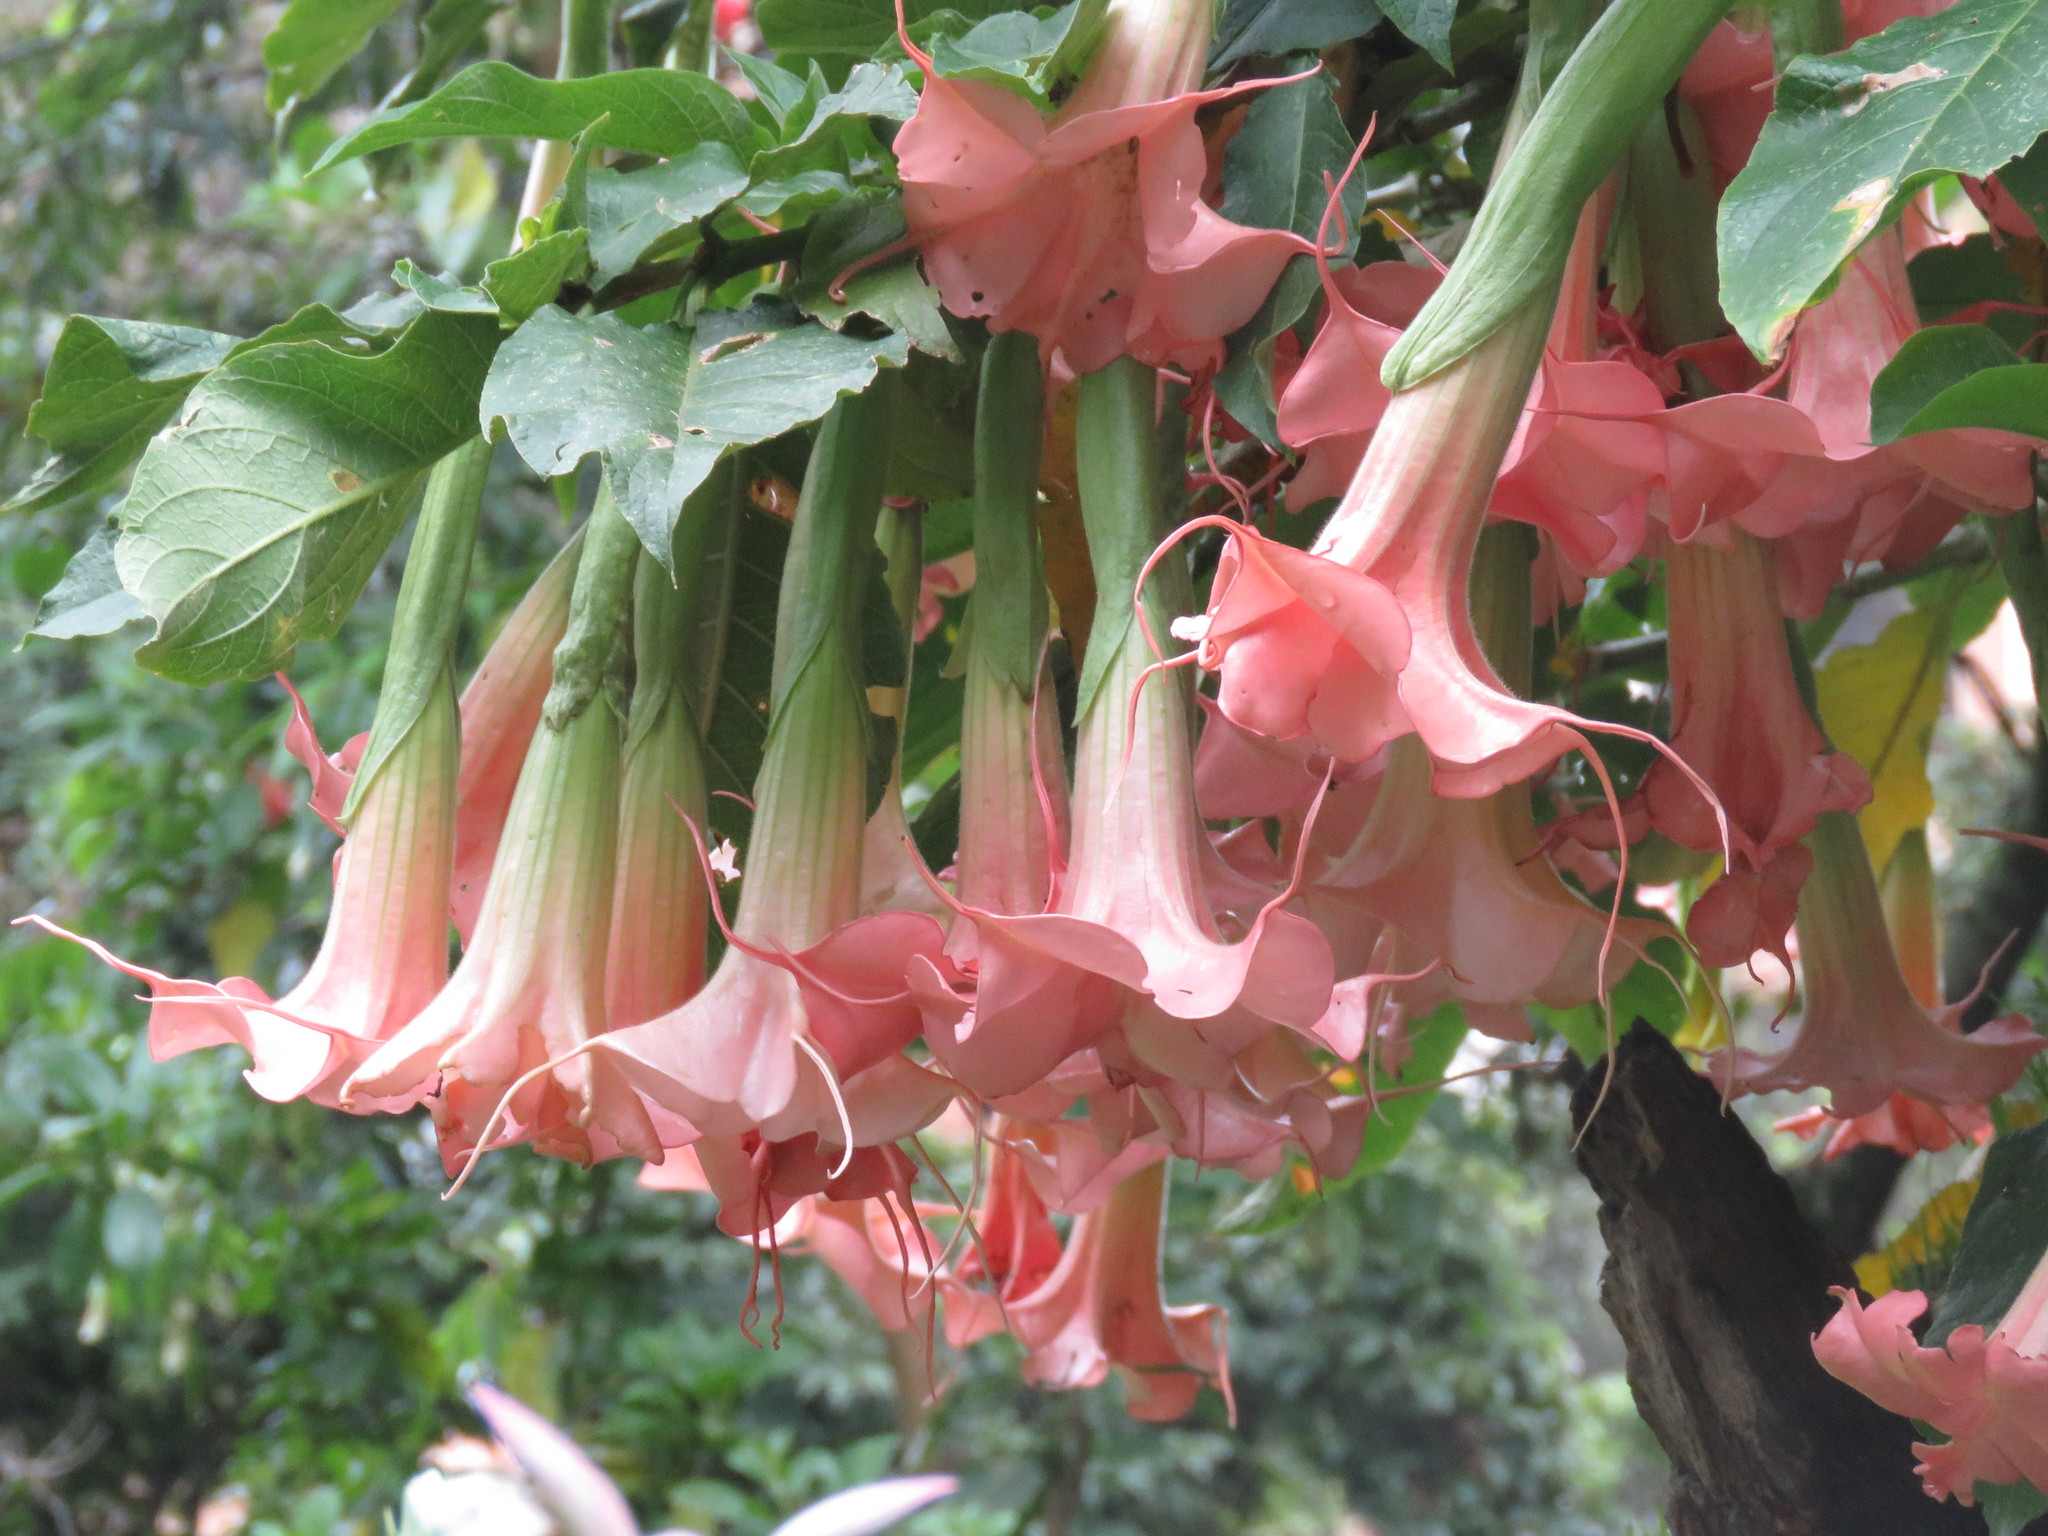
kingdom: Plantae
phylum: Tracheophyta
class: Magnoliopsida
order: Solanales
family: Solanaceae
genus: Brugmansia
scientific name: Brugmansia candida
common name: Angel's-trumpet
